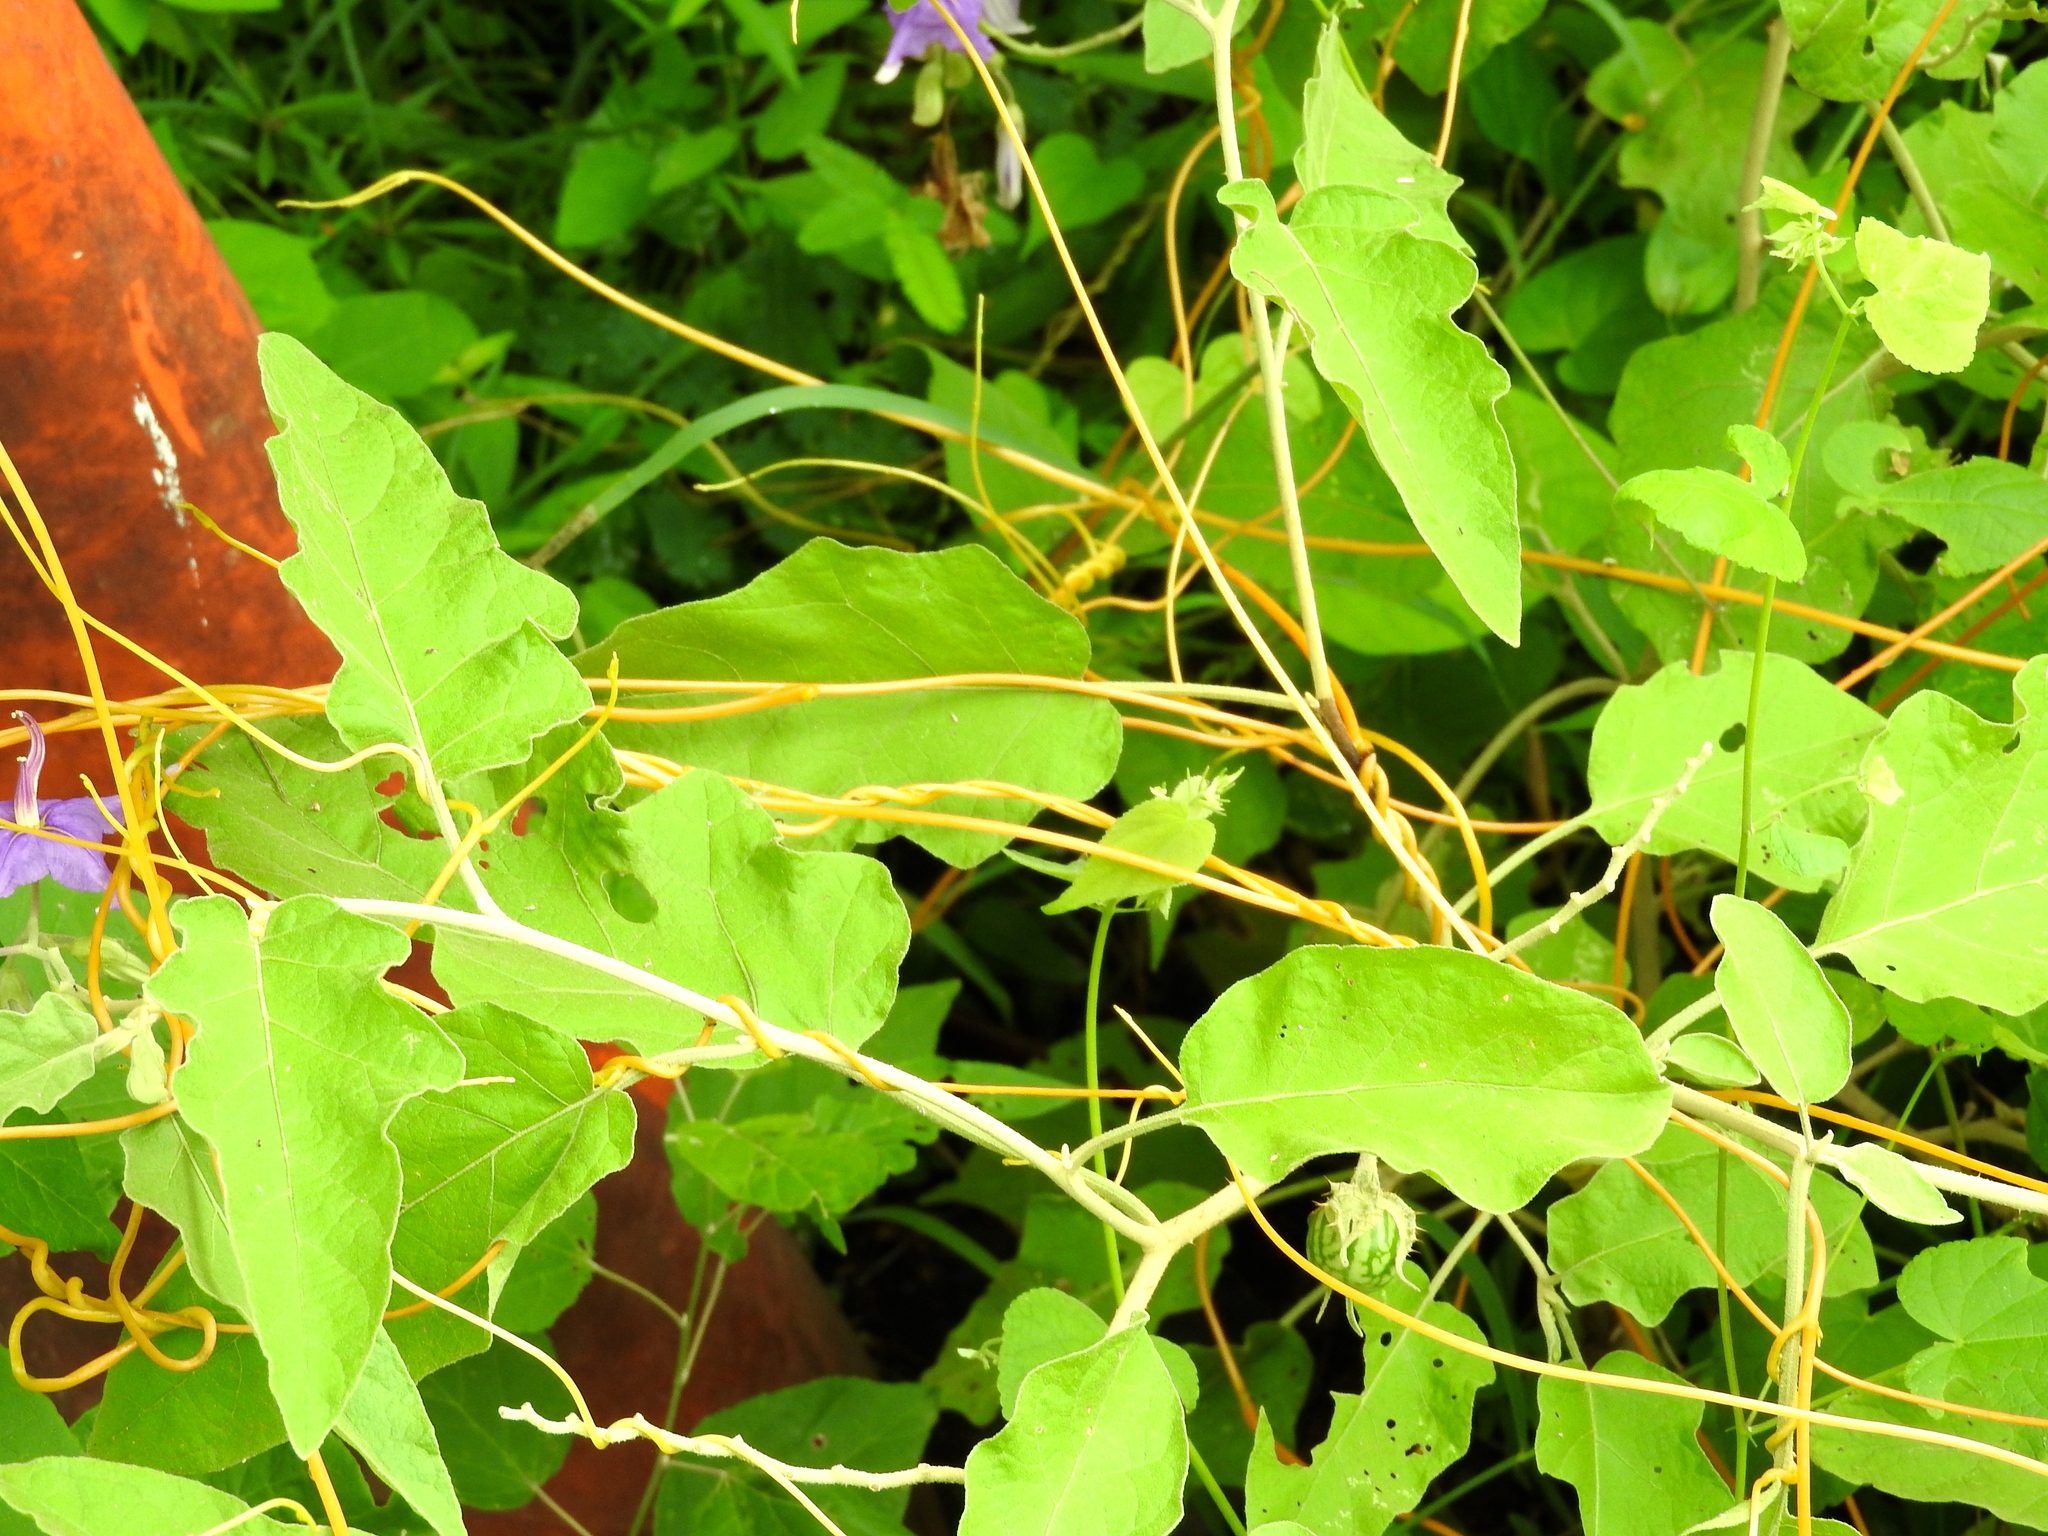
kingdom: Plantae
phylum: Tracheophyta
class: Magnoliopsida
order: Solanales
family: Convolvulaceae
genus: Cuscuta
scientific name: Cuscuta
